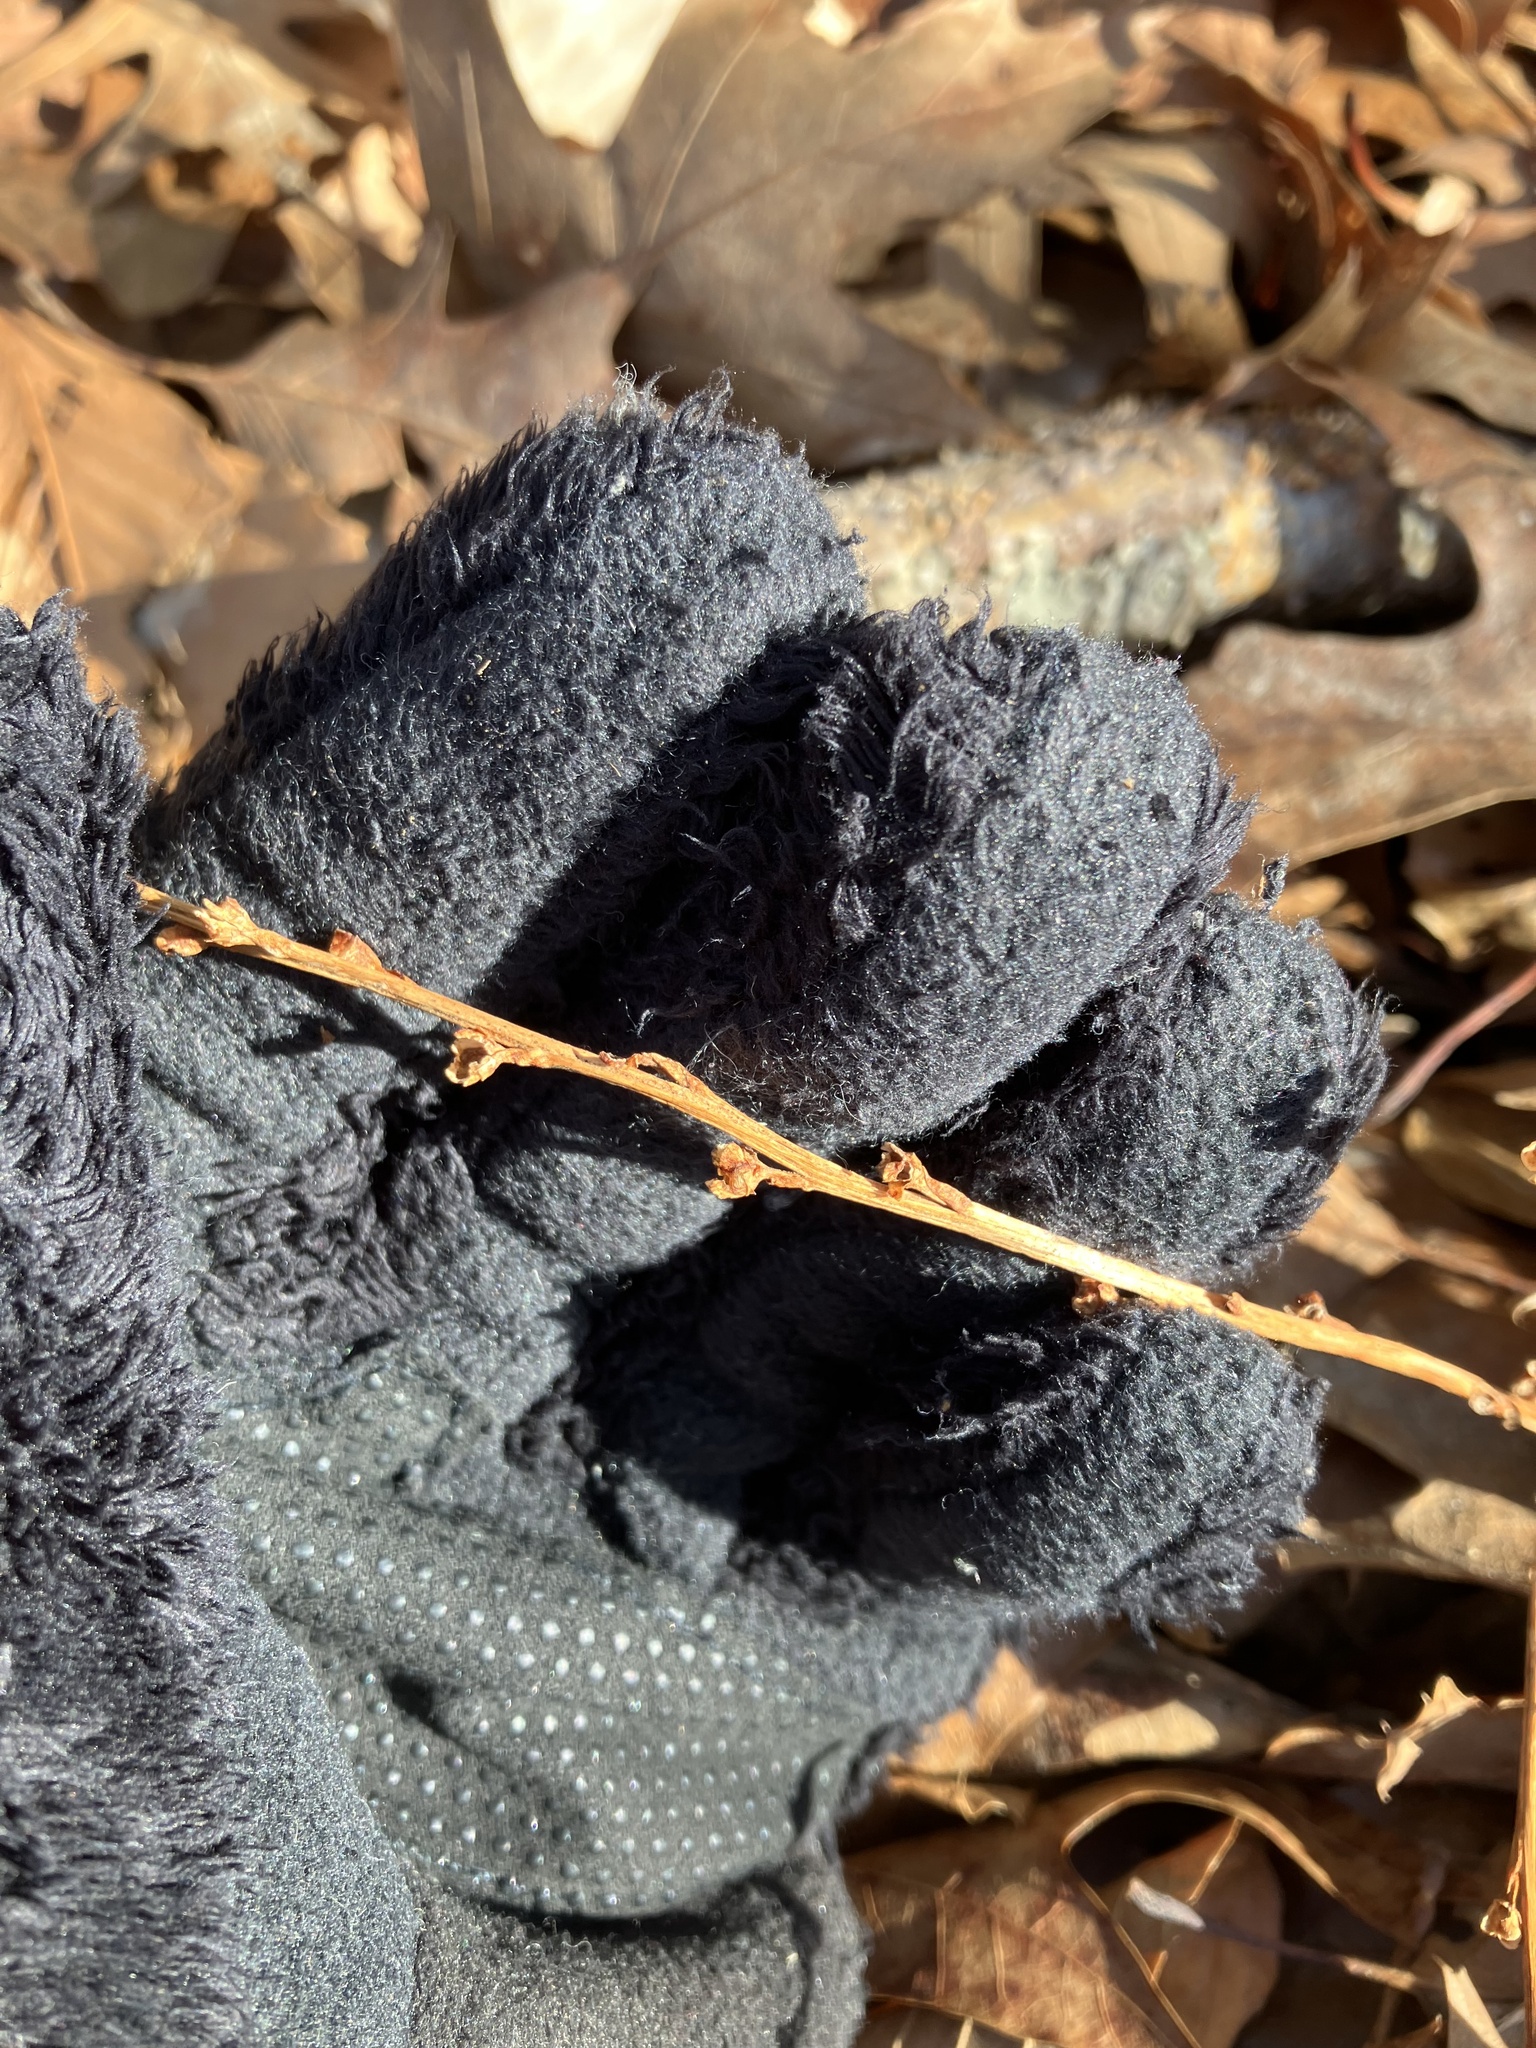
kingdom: Plantae
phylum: Tracheophyta
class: Magnoliopsida
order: Lamiales
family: Orobanchaceae
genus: Epifagus
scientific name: Epifagus virginiana
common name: Beechdrops
